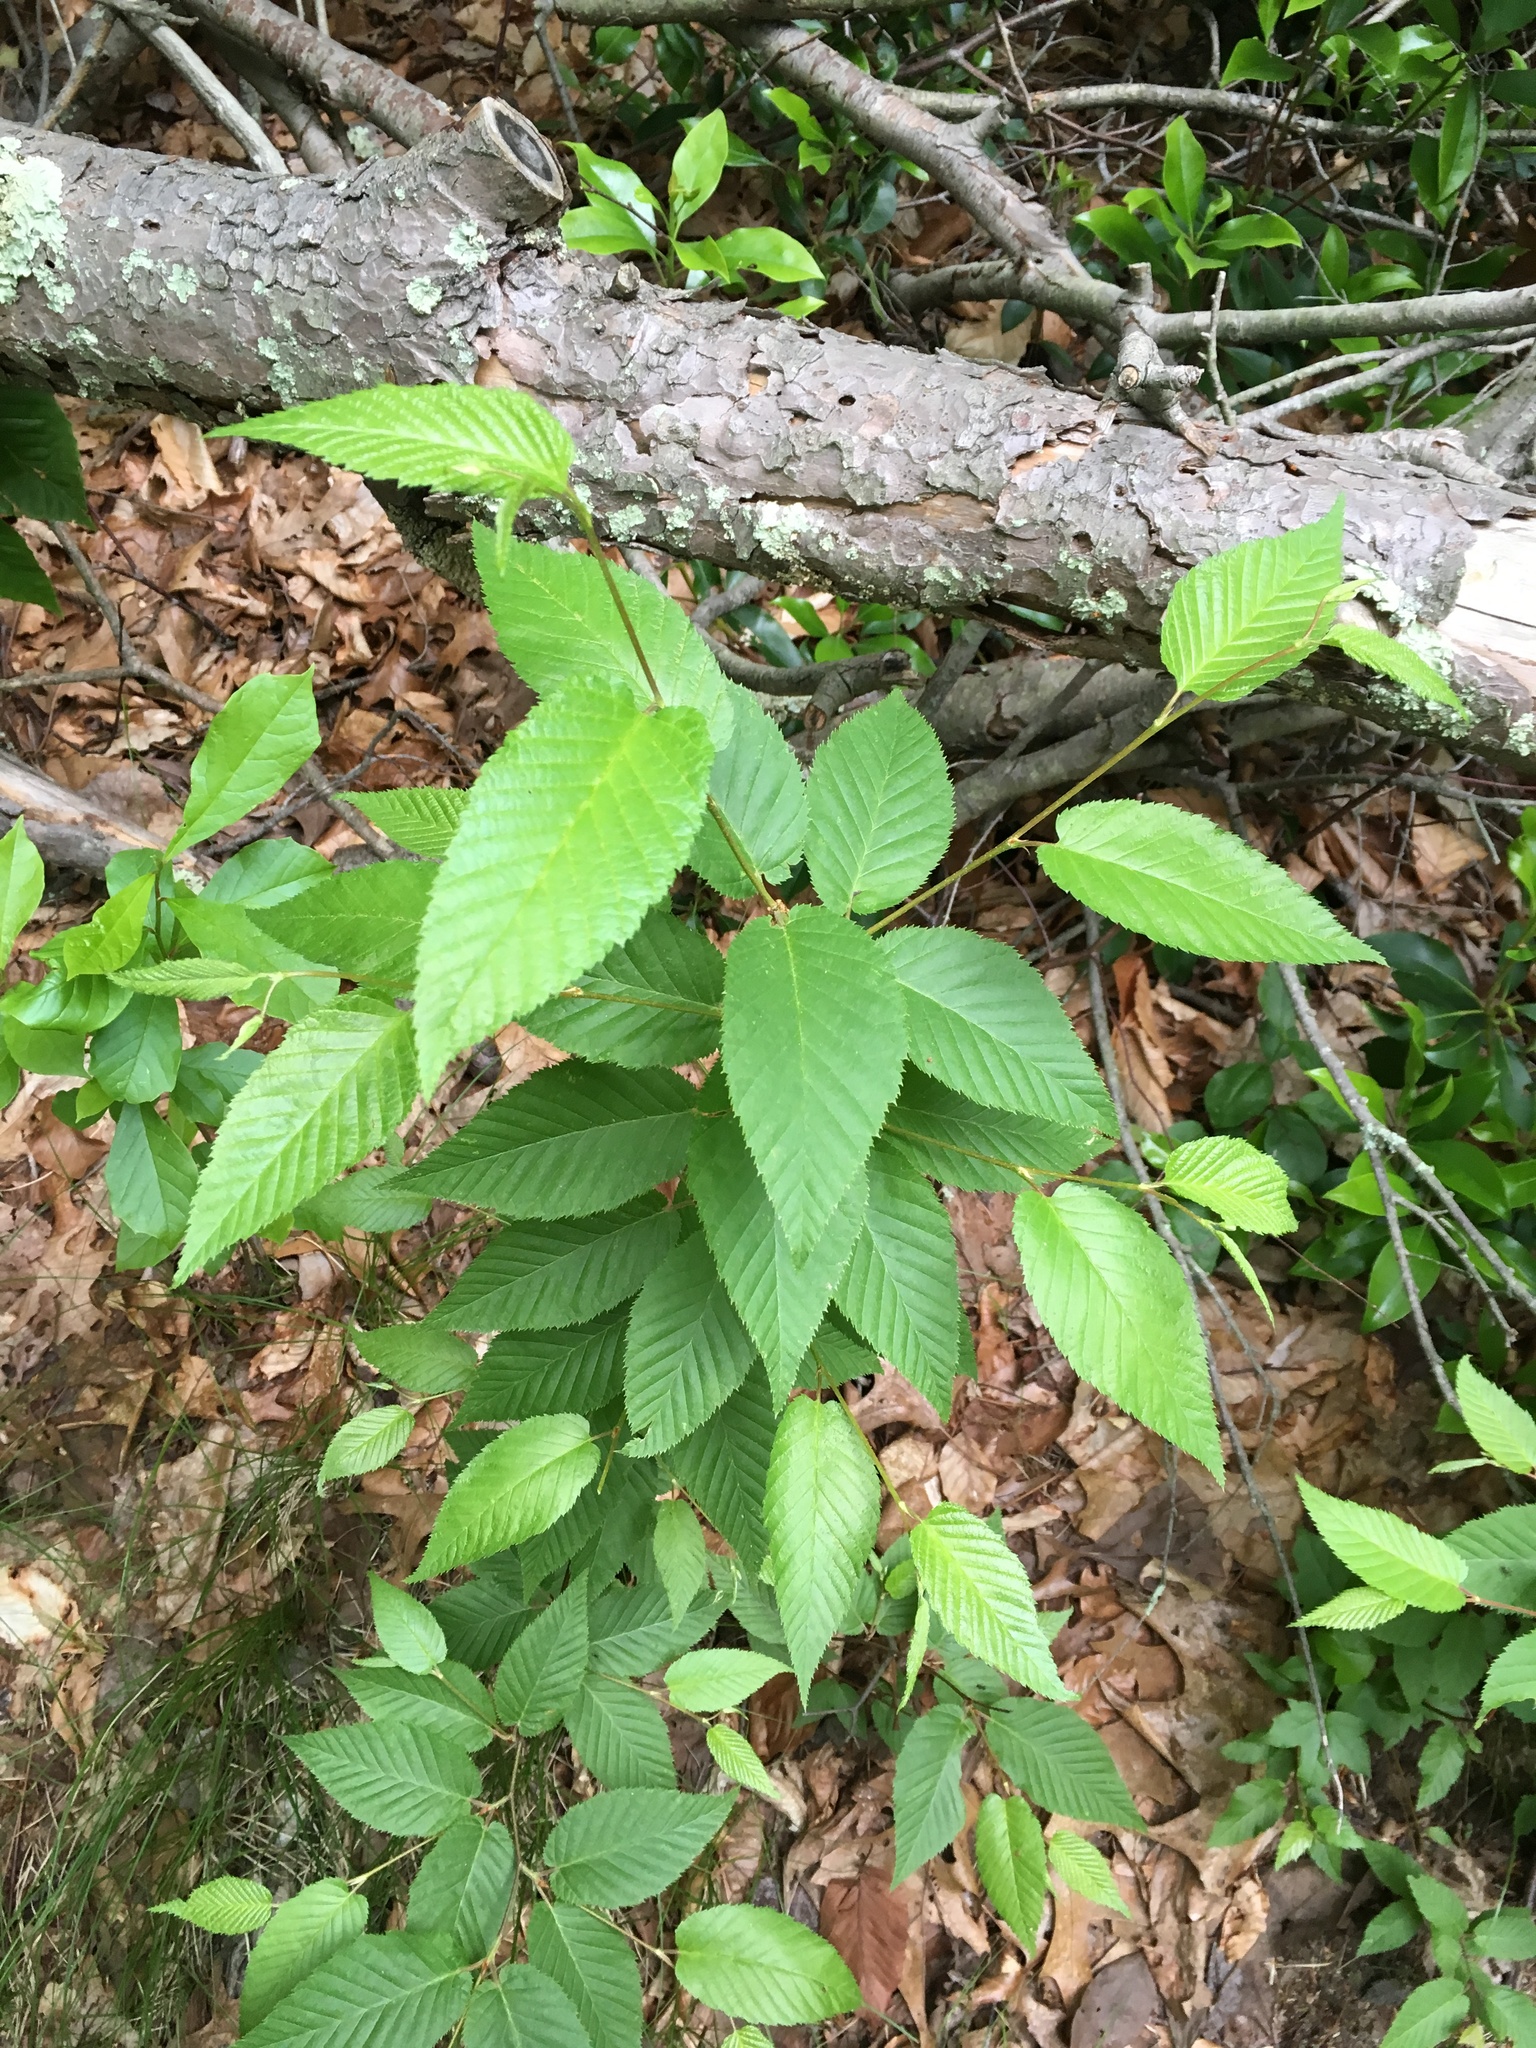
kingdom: Plantae
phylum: Tracheophyta
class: Magnoliopsida
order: Fagales
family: Betulaceae
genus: Betula
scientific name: Betula lenta
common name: Black birch
